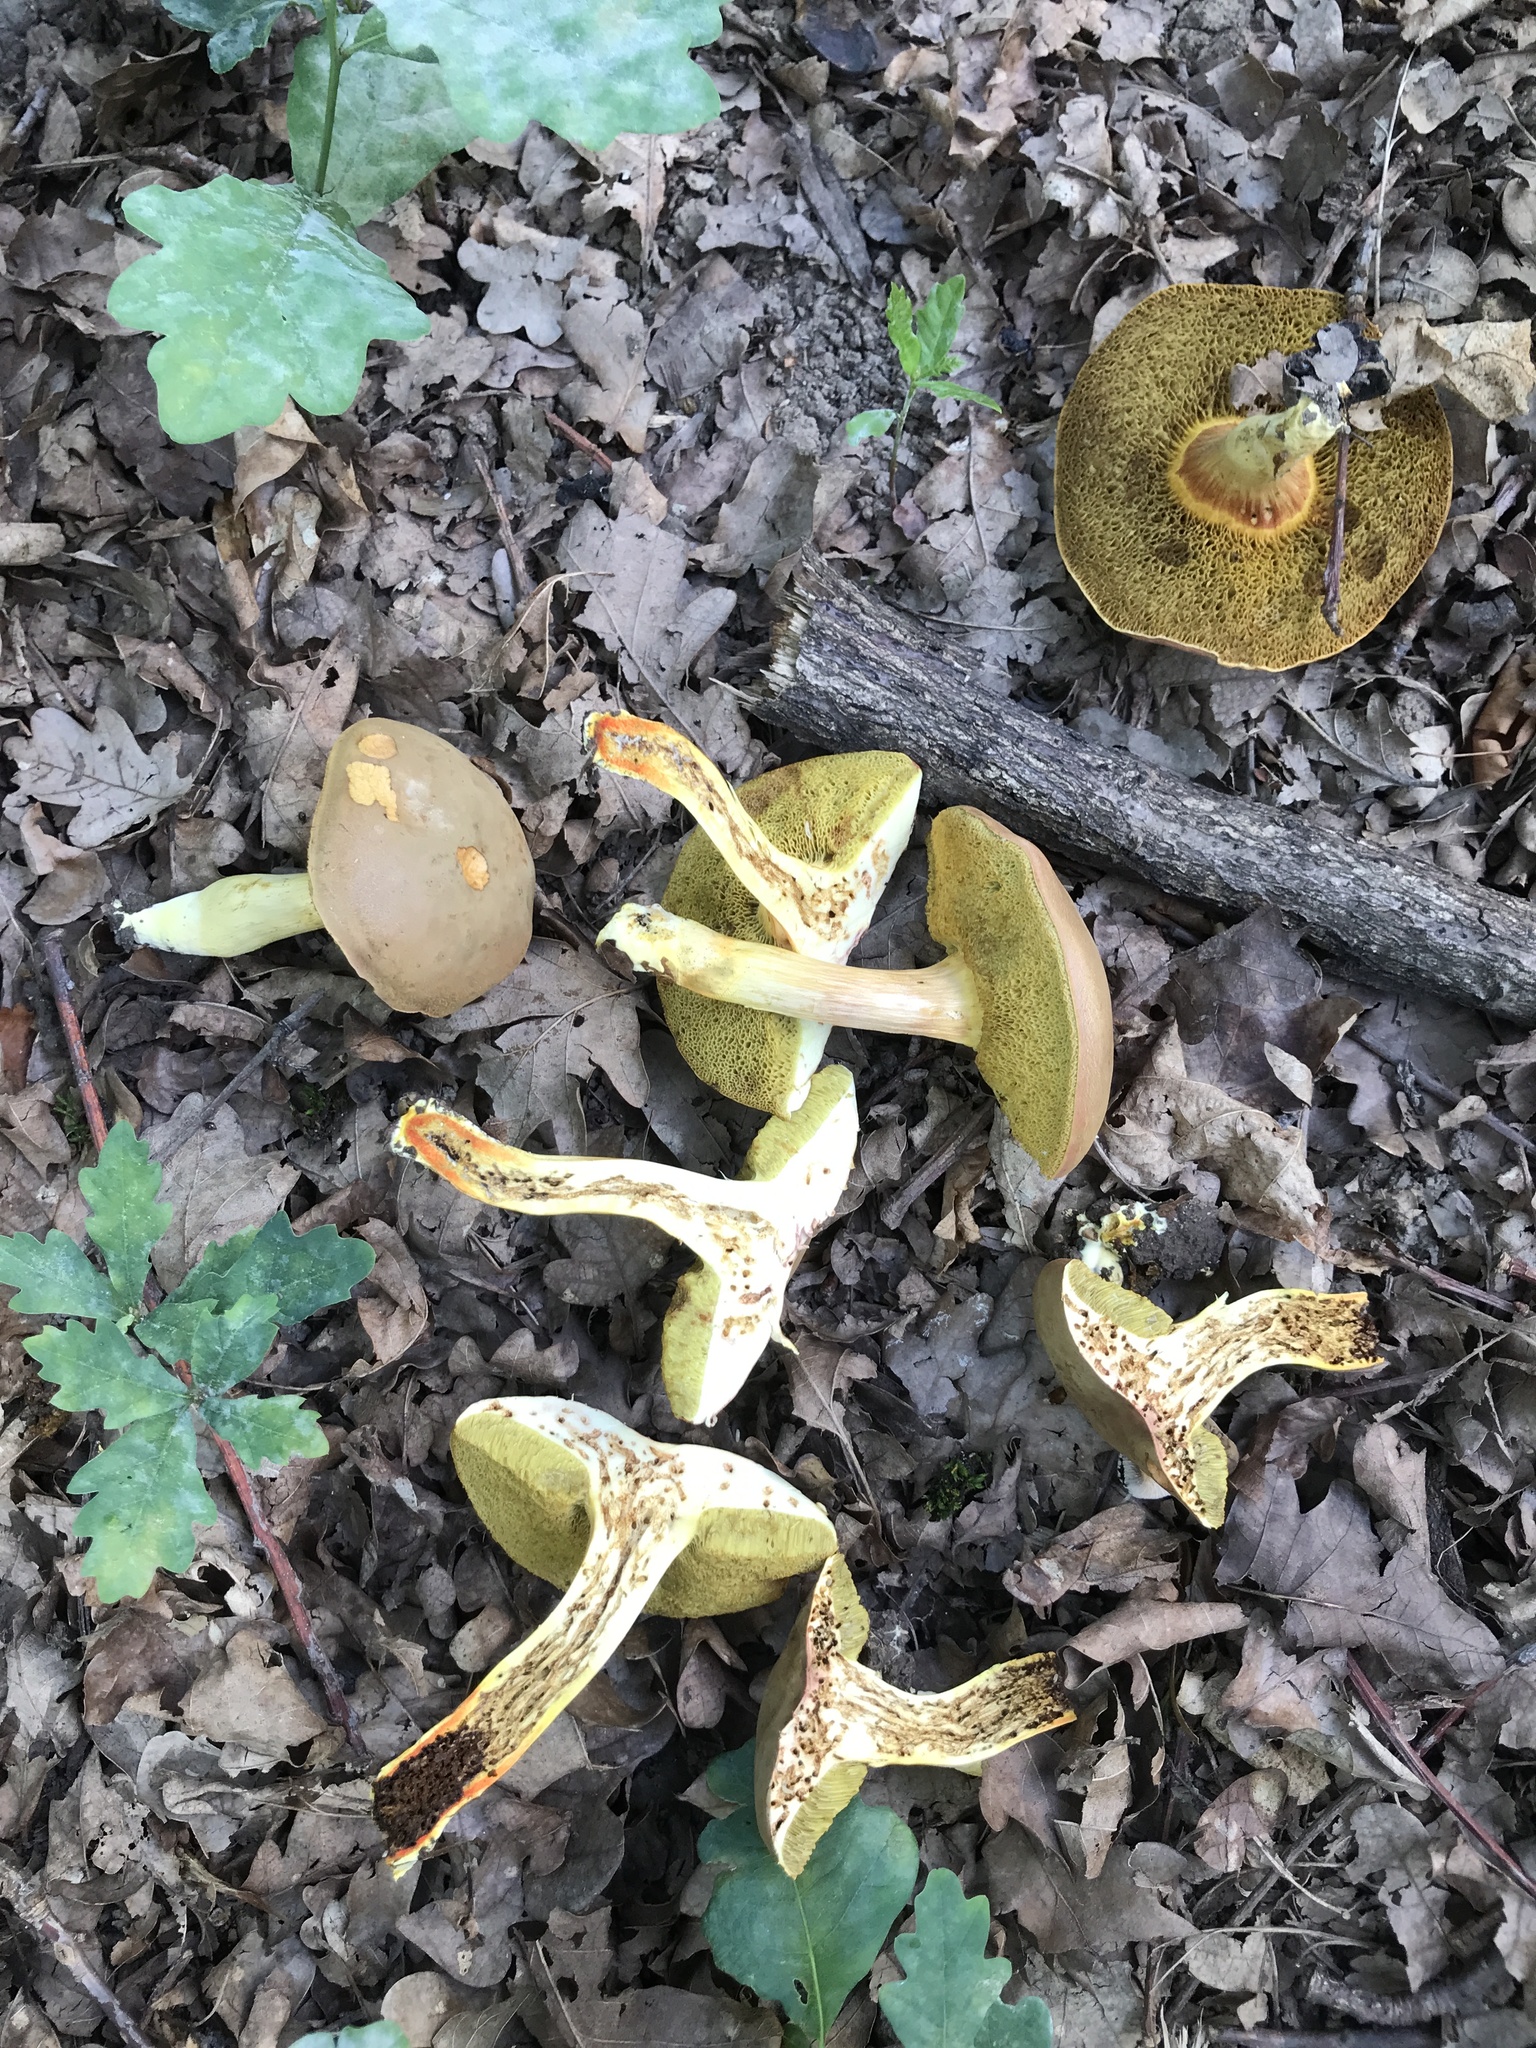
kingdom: Fungi
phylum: Basidiomycota
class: Agaricomycetes
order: Boletales
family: Boletaceae
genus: Hortiboletus
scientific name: Hortiboletus engelii
